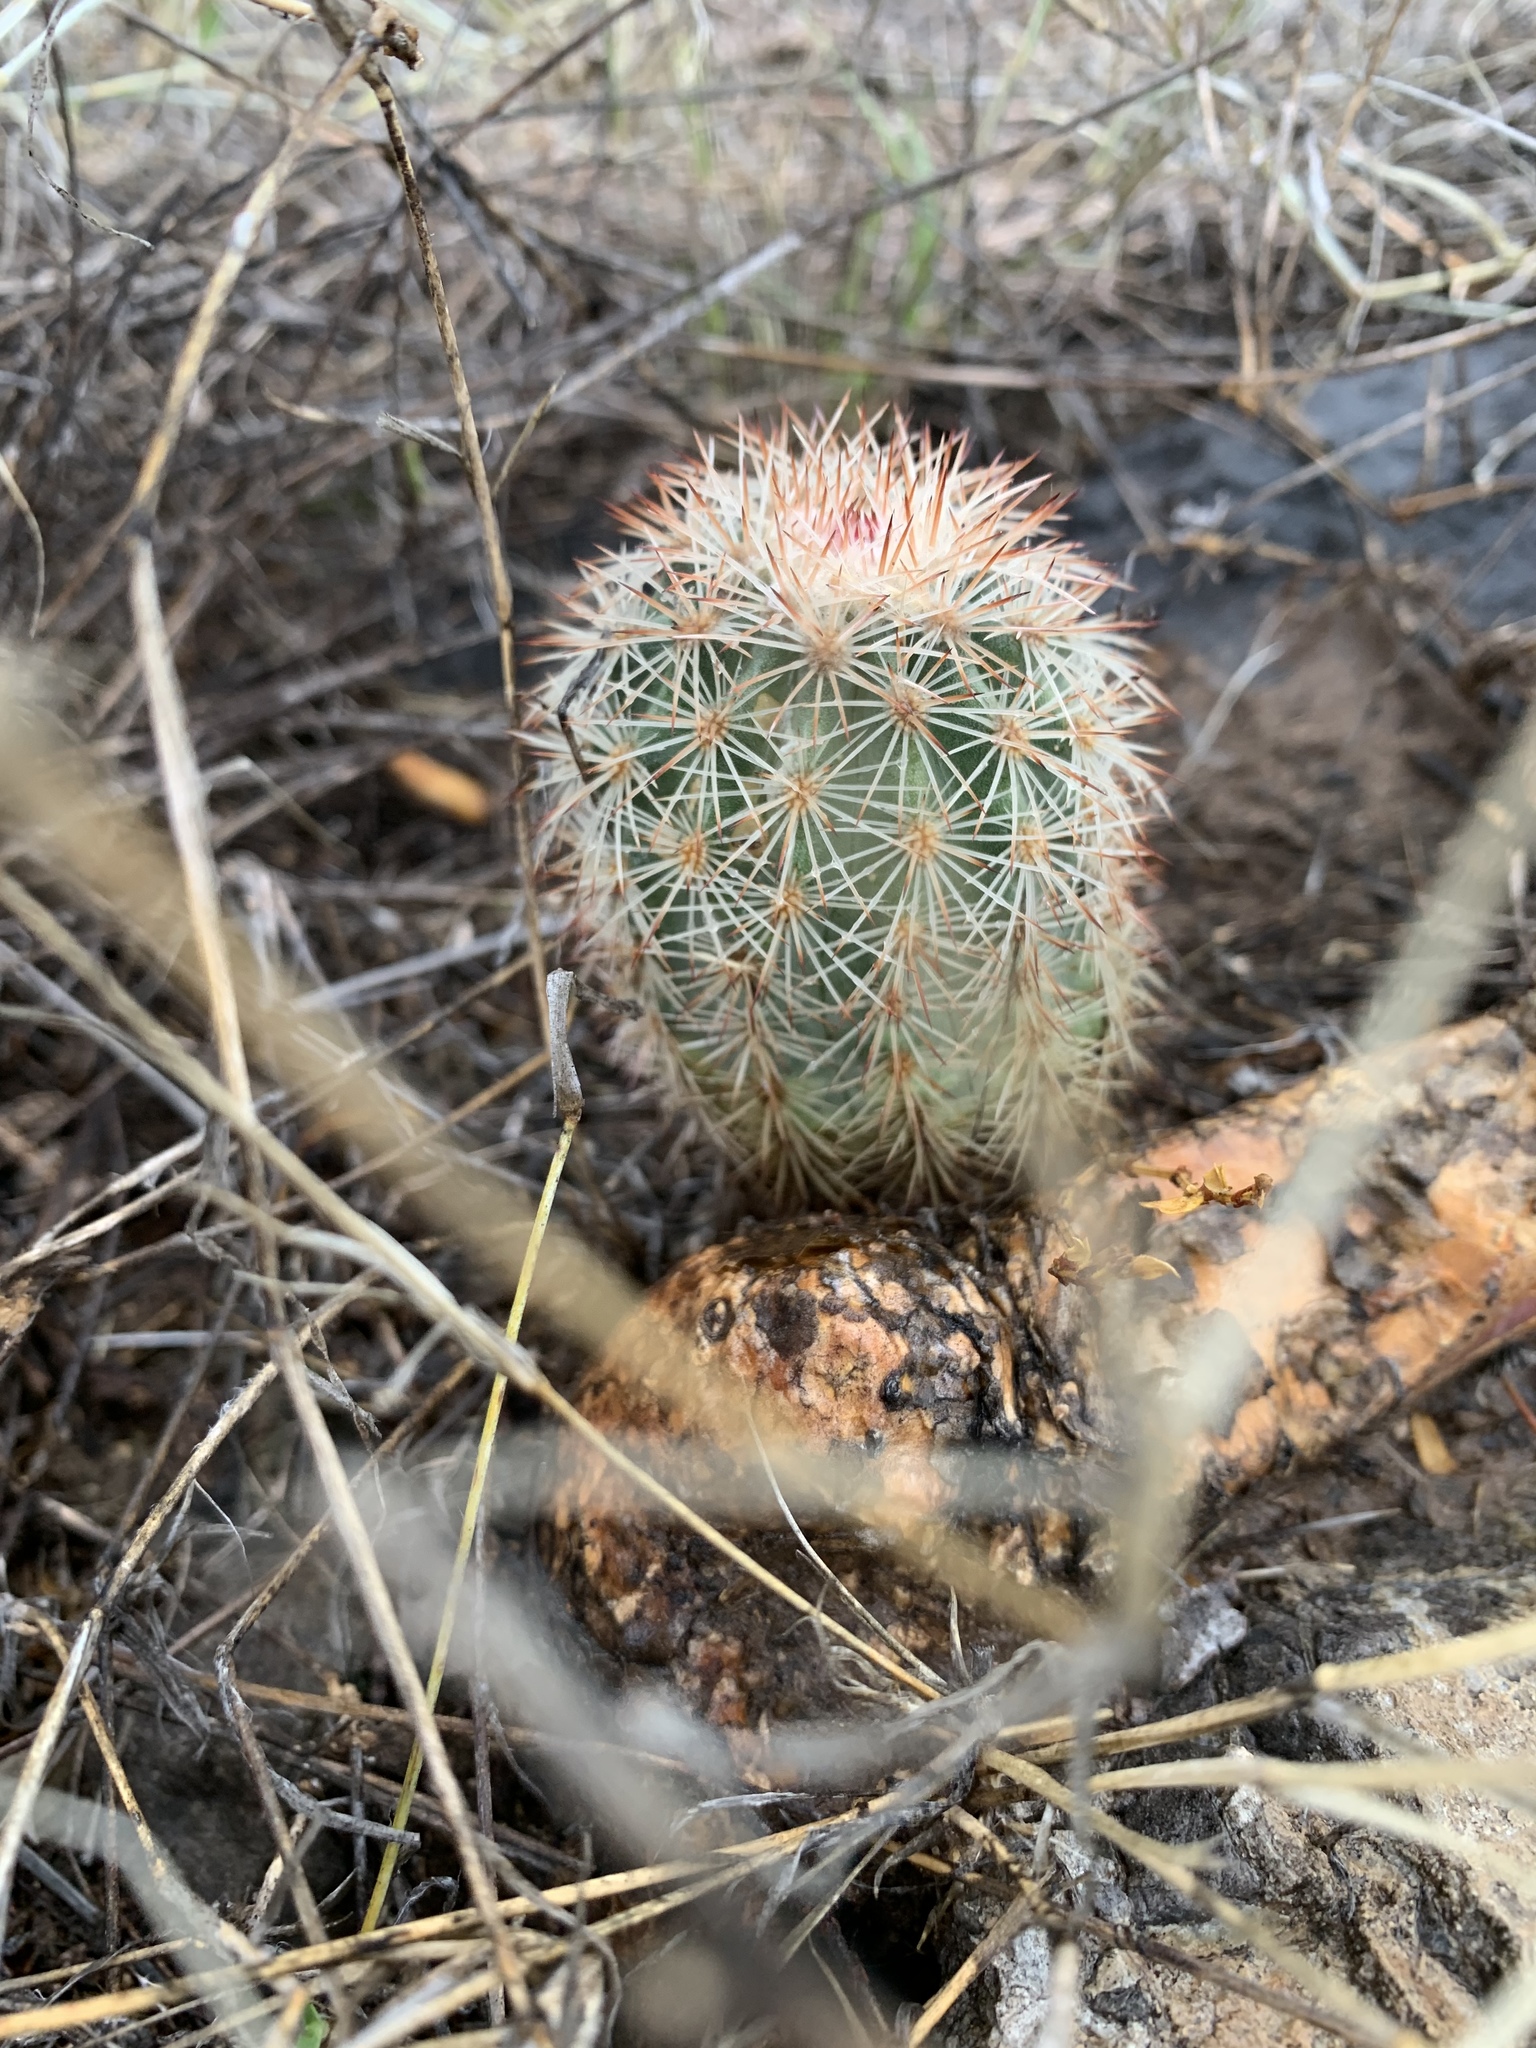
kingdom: Plantae
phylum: Tracheophyta
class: Magnoliopsida
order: Caryophyllales
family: Cactaceae
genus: Echinocereus
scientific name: Echinocereus dasyacanthus
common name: Spiny hedgehog cactus
